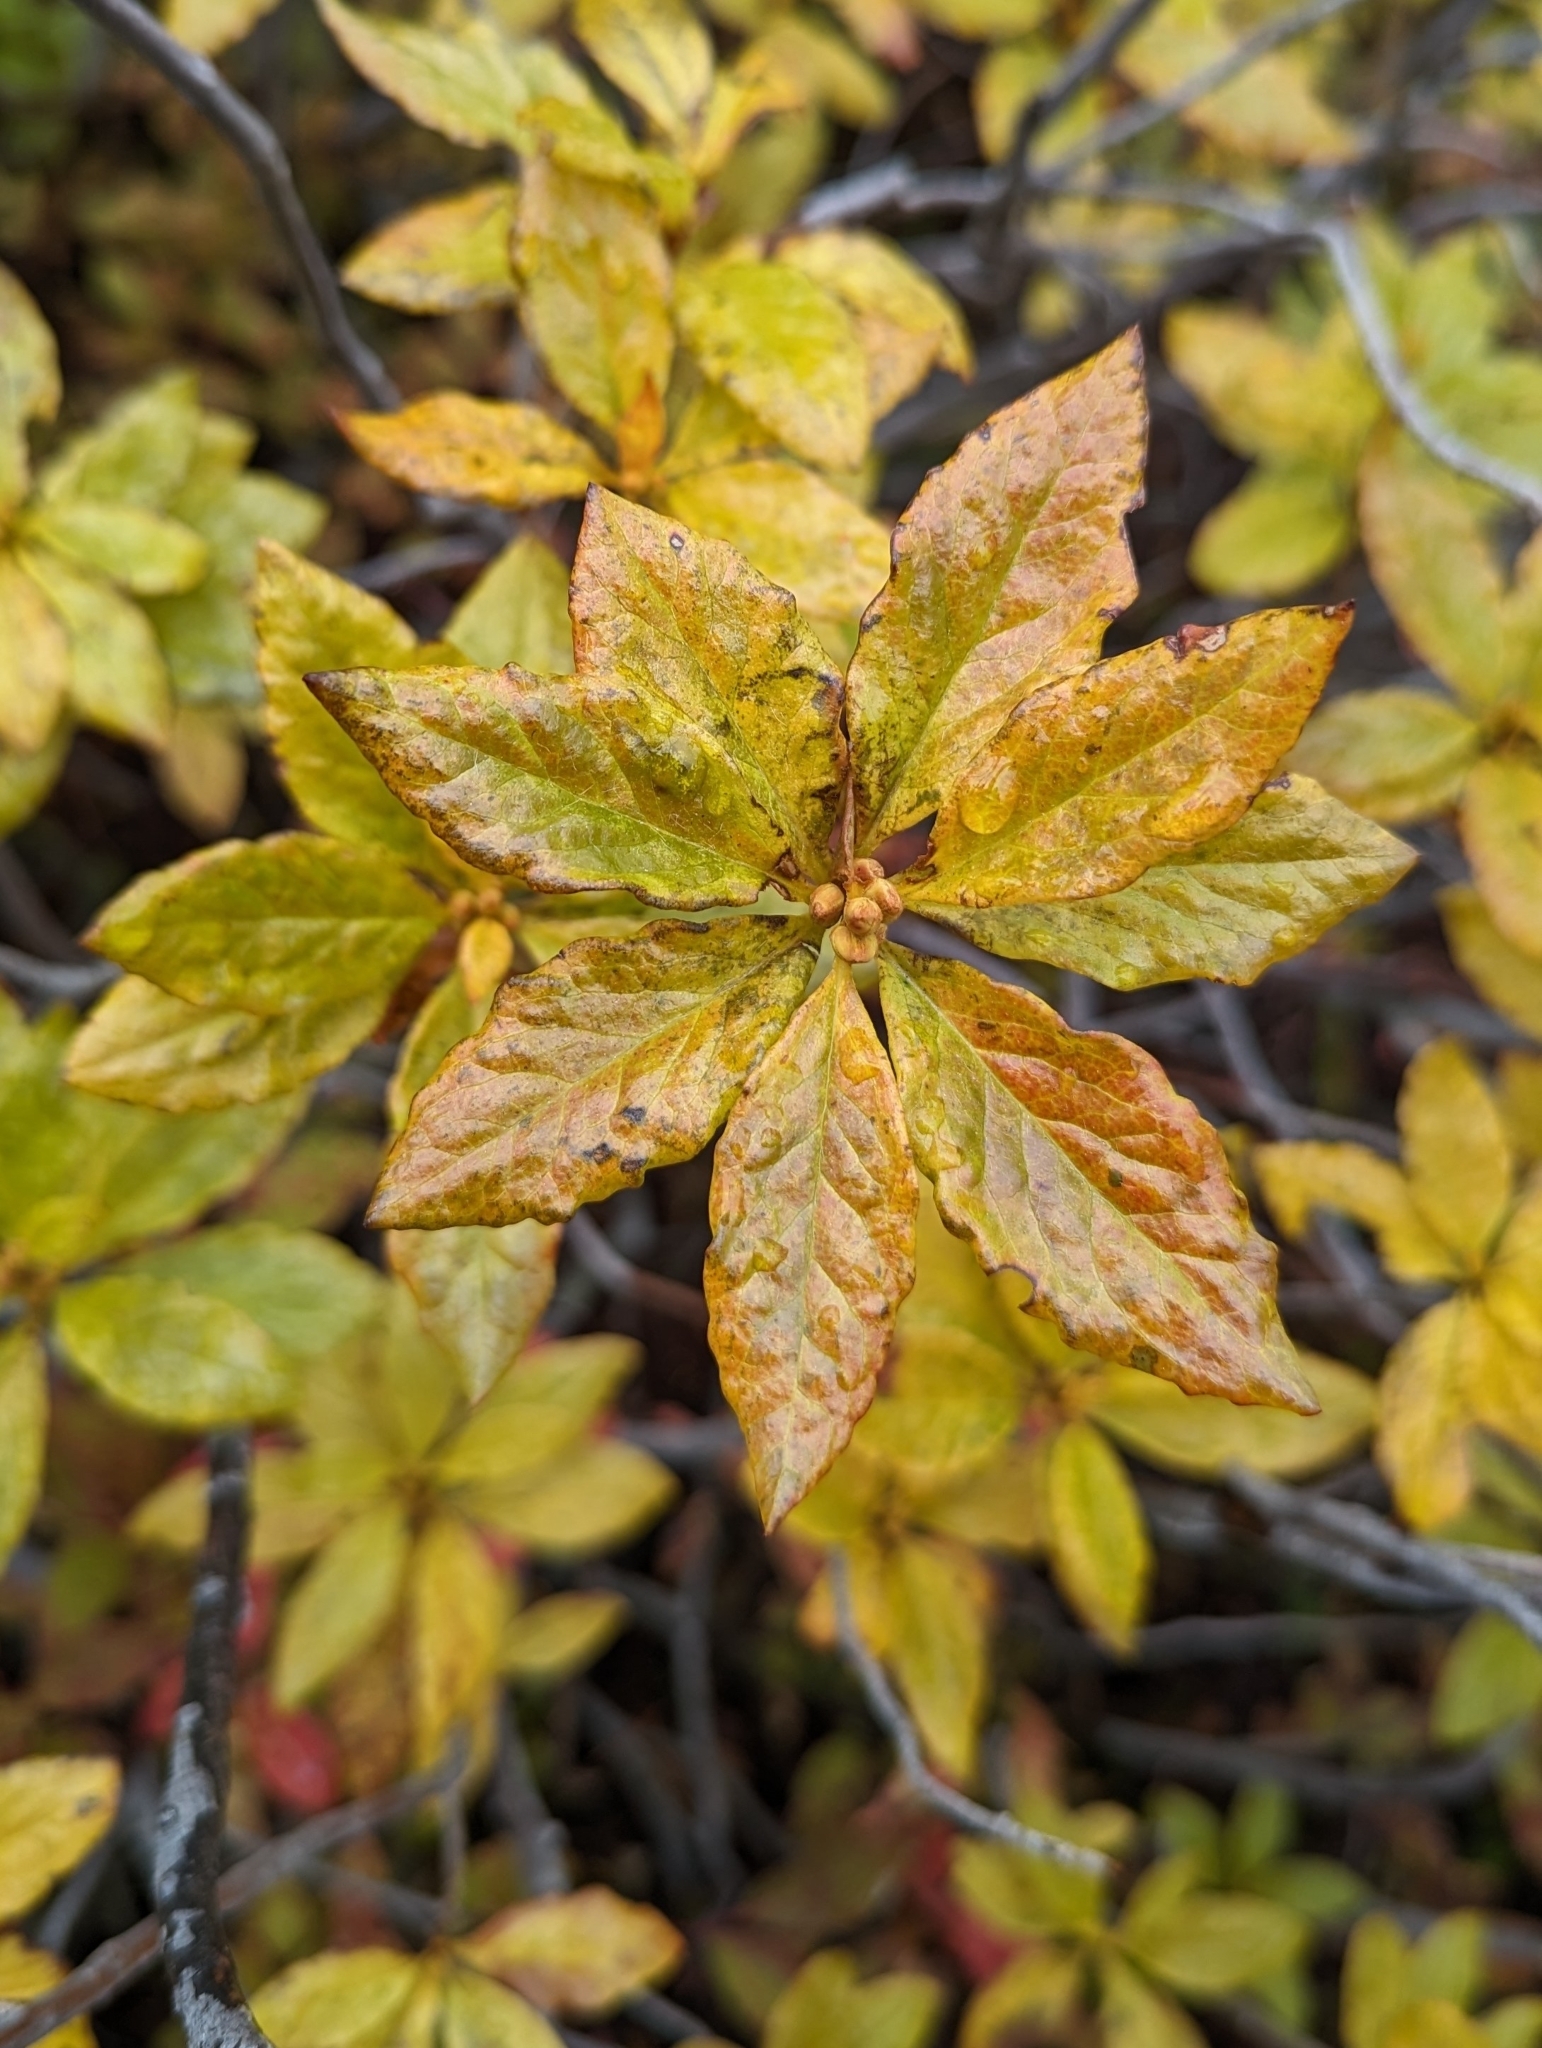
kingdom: Plantae
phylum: Tracheophyta
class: Magnoliopsida
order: Ericales
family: Ericaceae
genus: Rhododendron
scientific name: Rhododendron albiflorum
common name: White rhododendron
